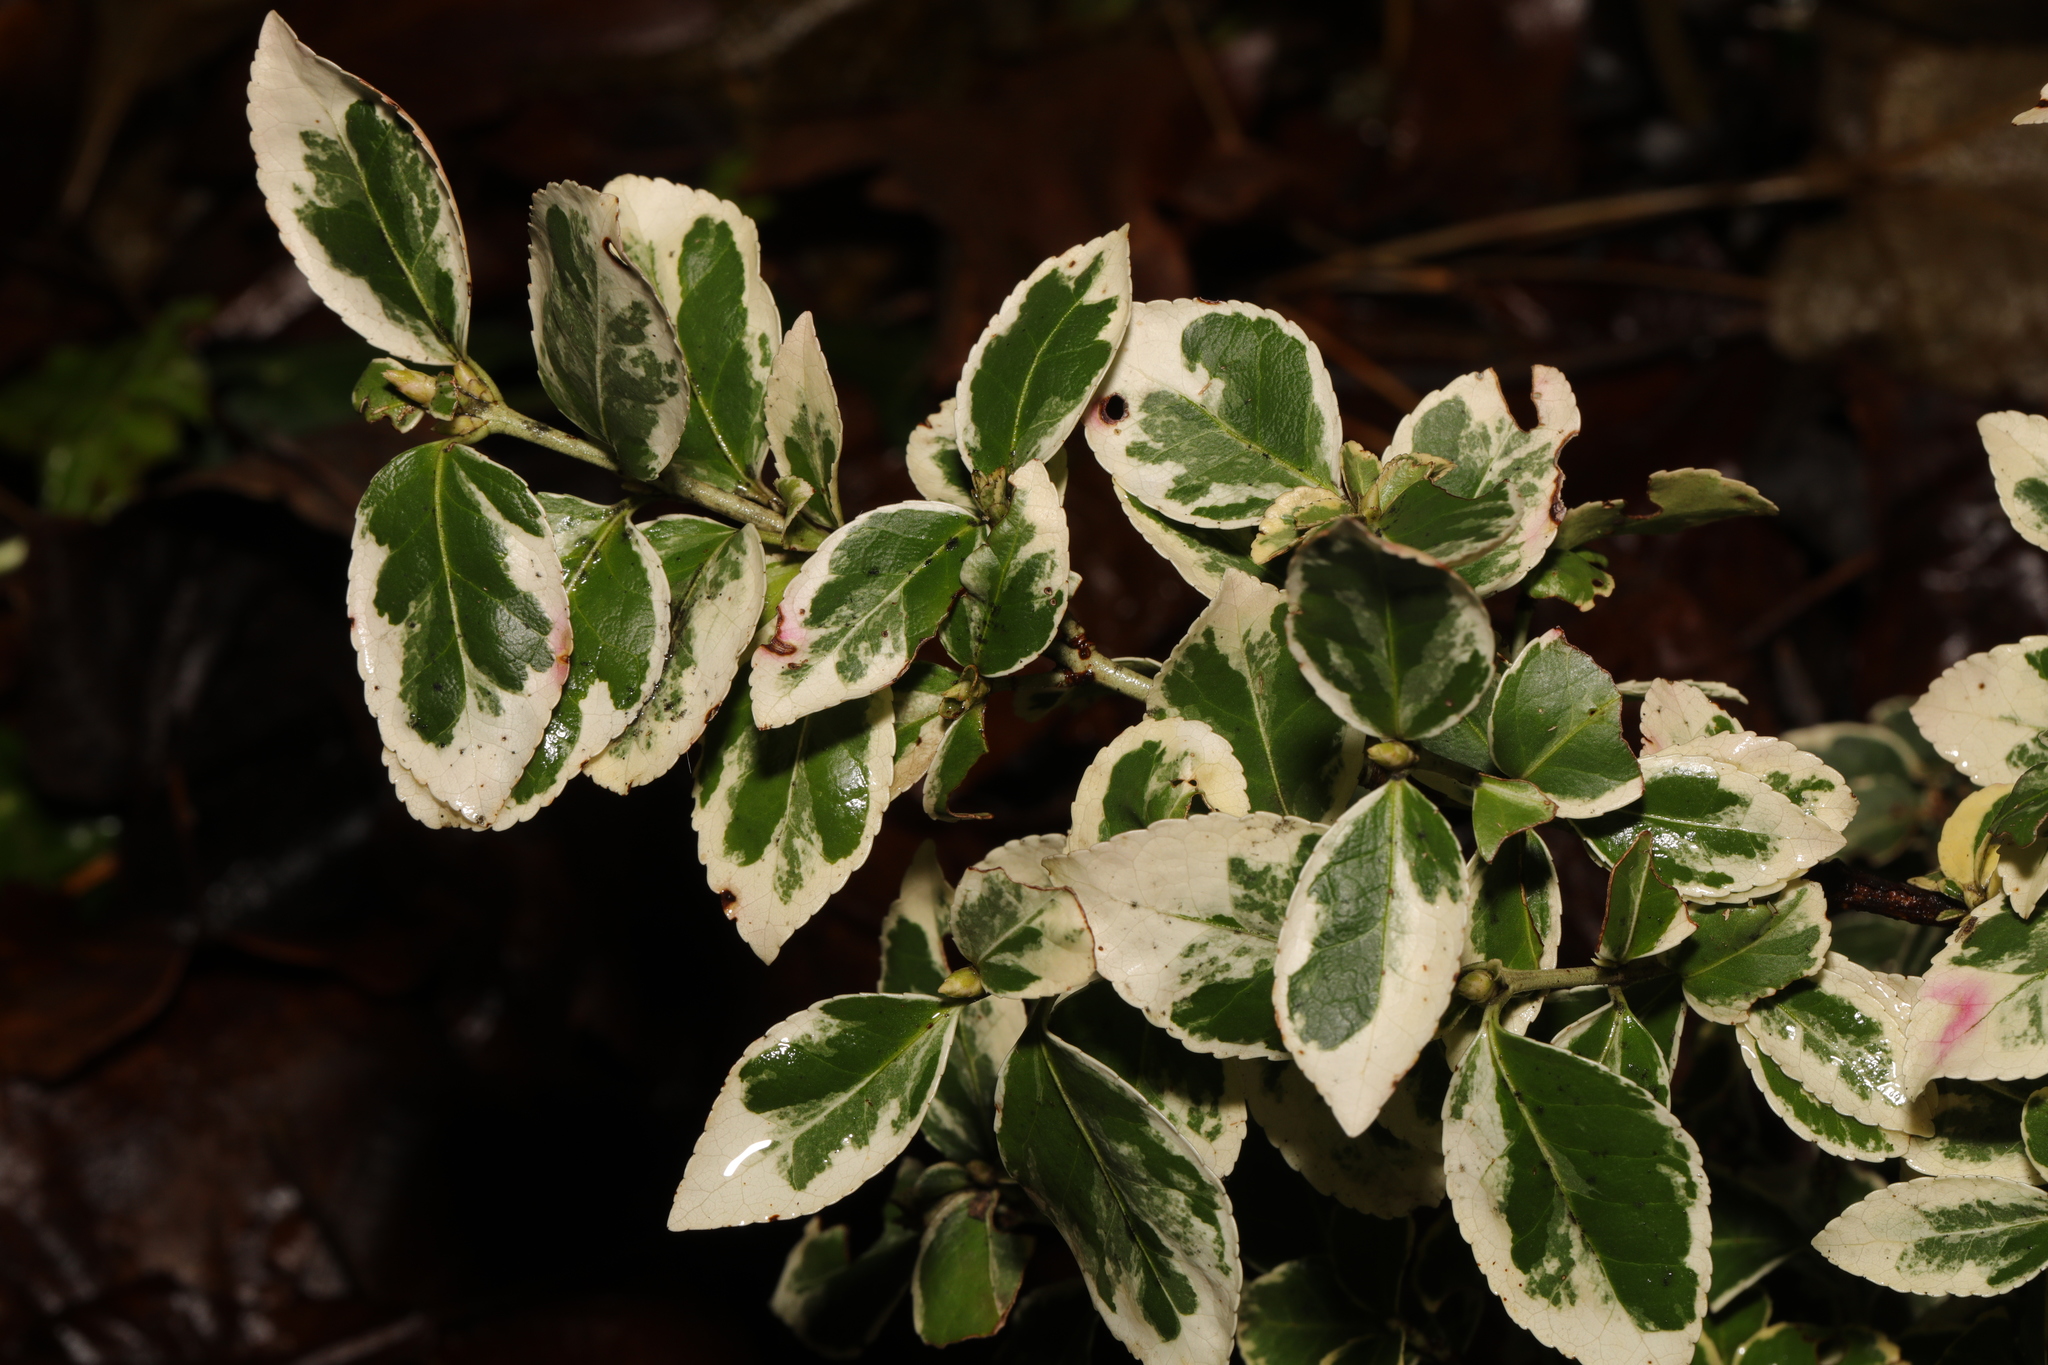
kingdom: Plantae
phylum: Tracheophyta
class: Magnoliopsida
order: Celastrales
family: Celastraceae
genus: Euonymus
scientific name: Euonymus japonicus
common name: Japanese spindletree
